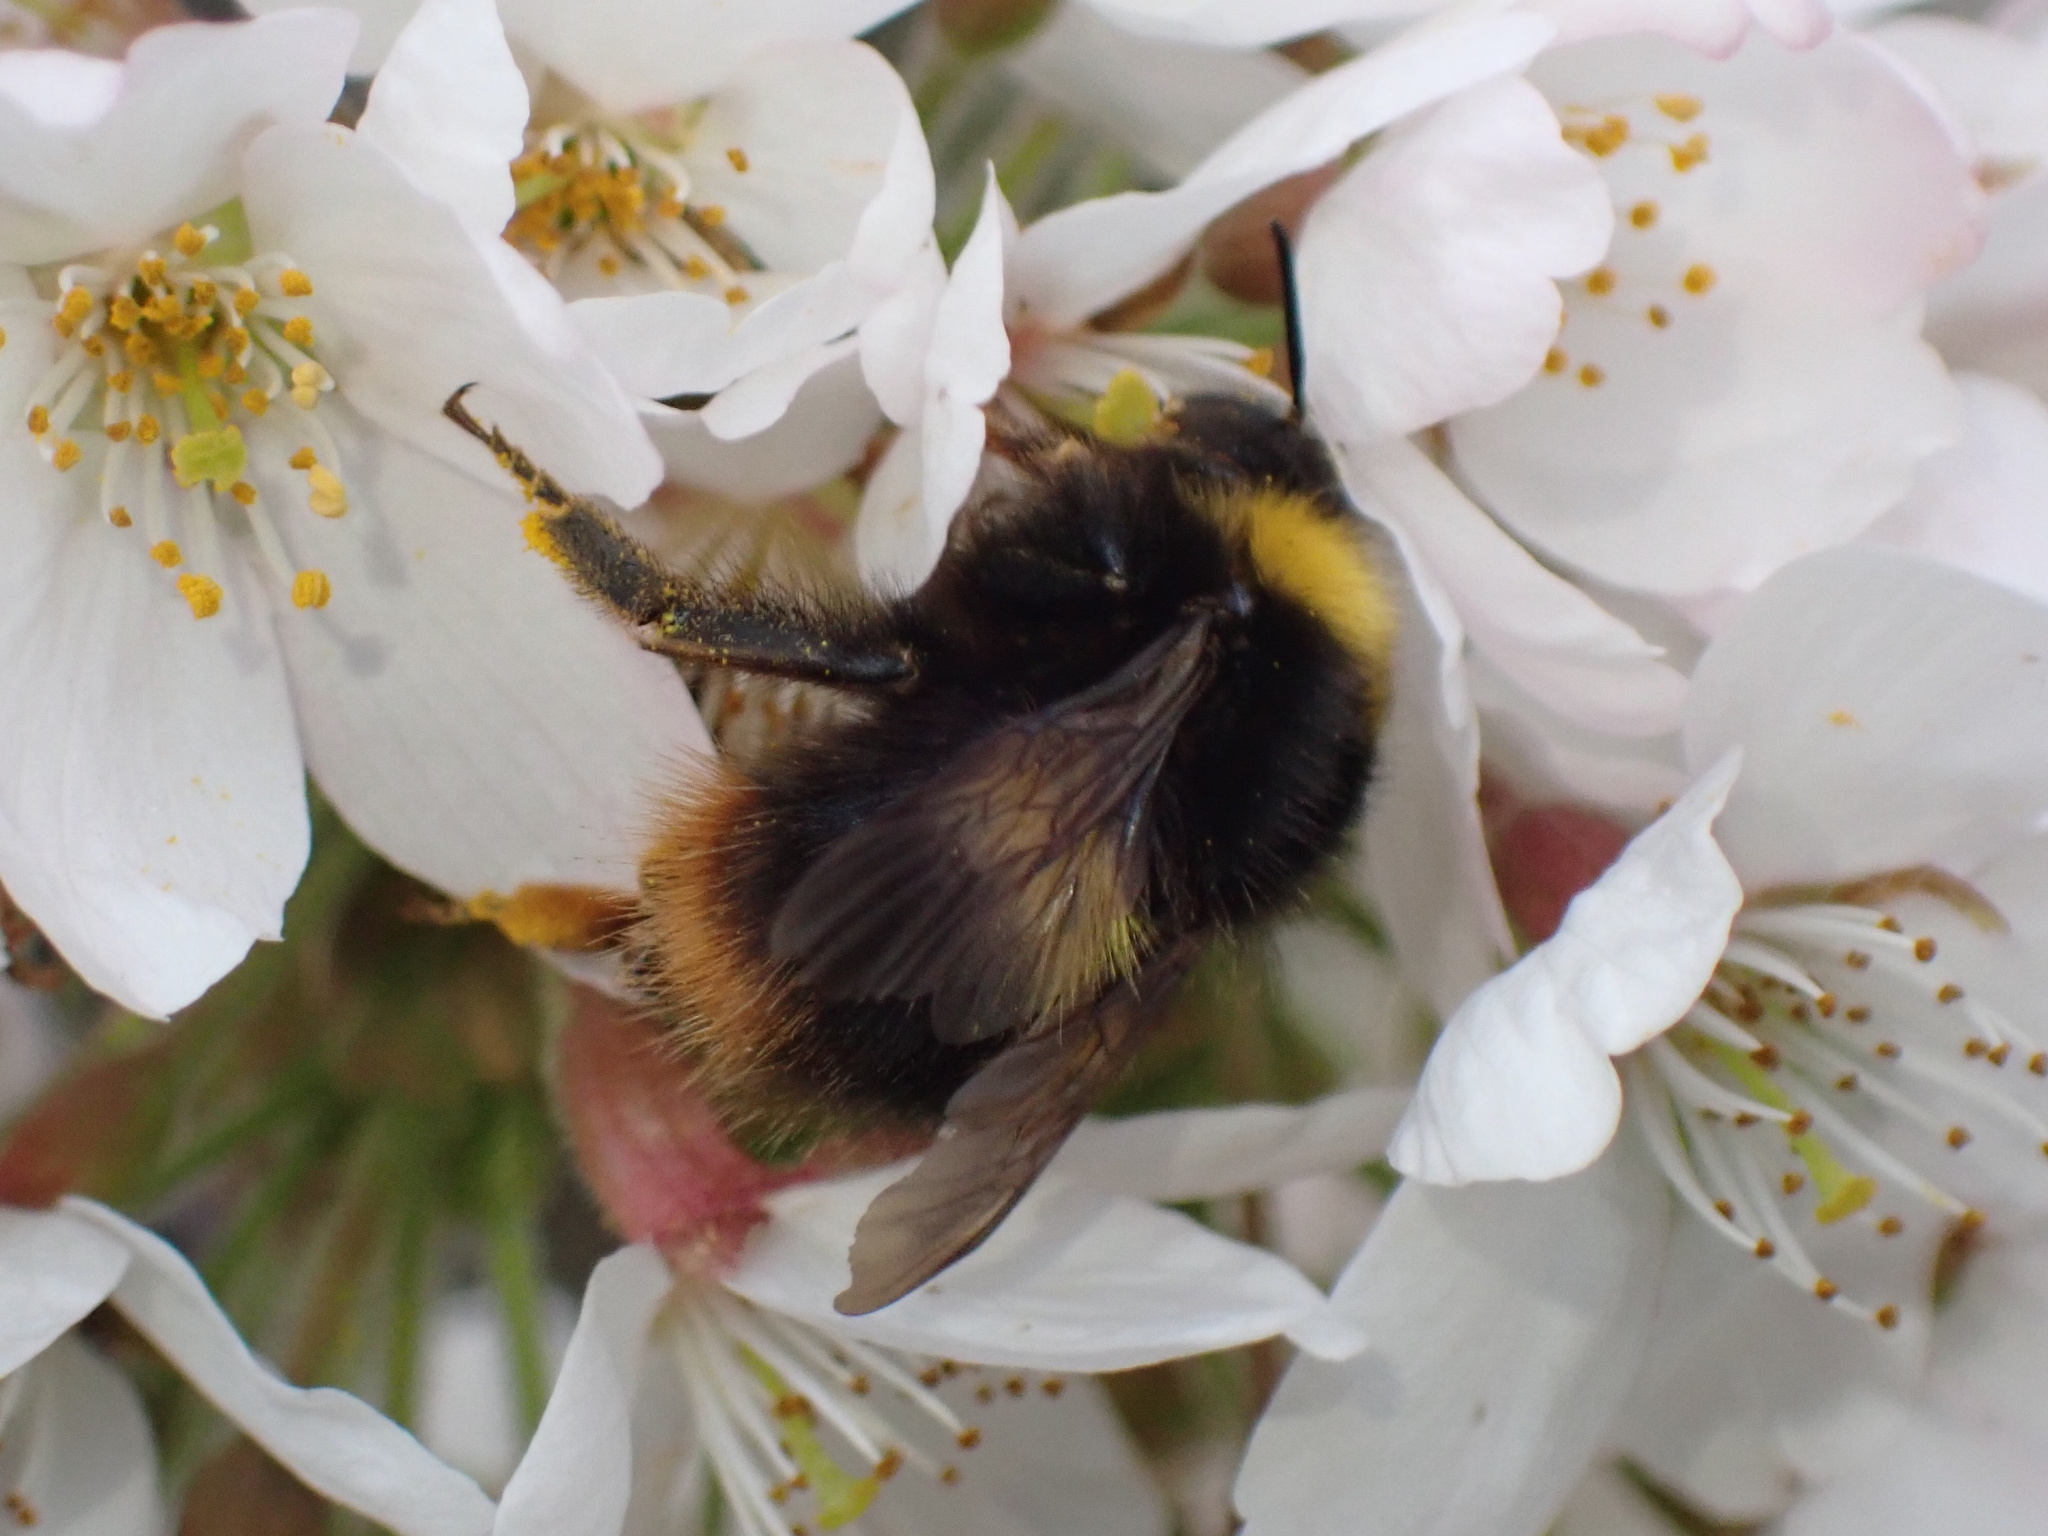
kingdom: Animalia
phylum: Arthropoda
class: Insecta
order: Hymenoptera
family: Apidae
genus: Bombus
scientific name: Bombus pratorum
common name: Early humble-bee
